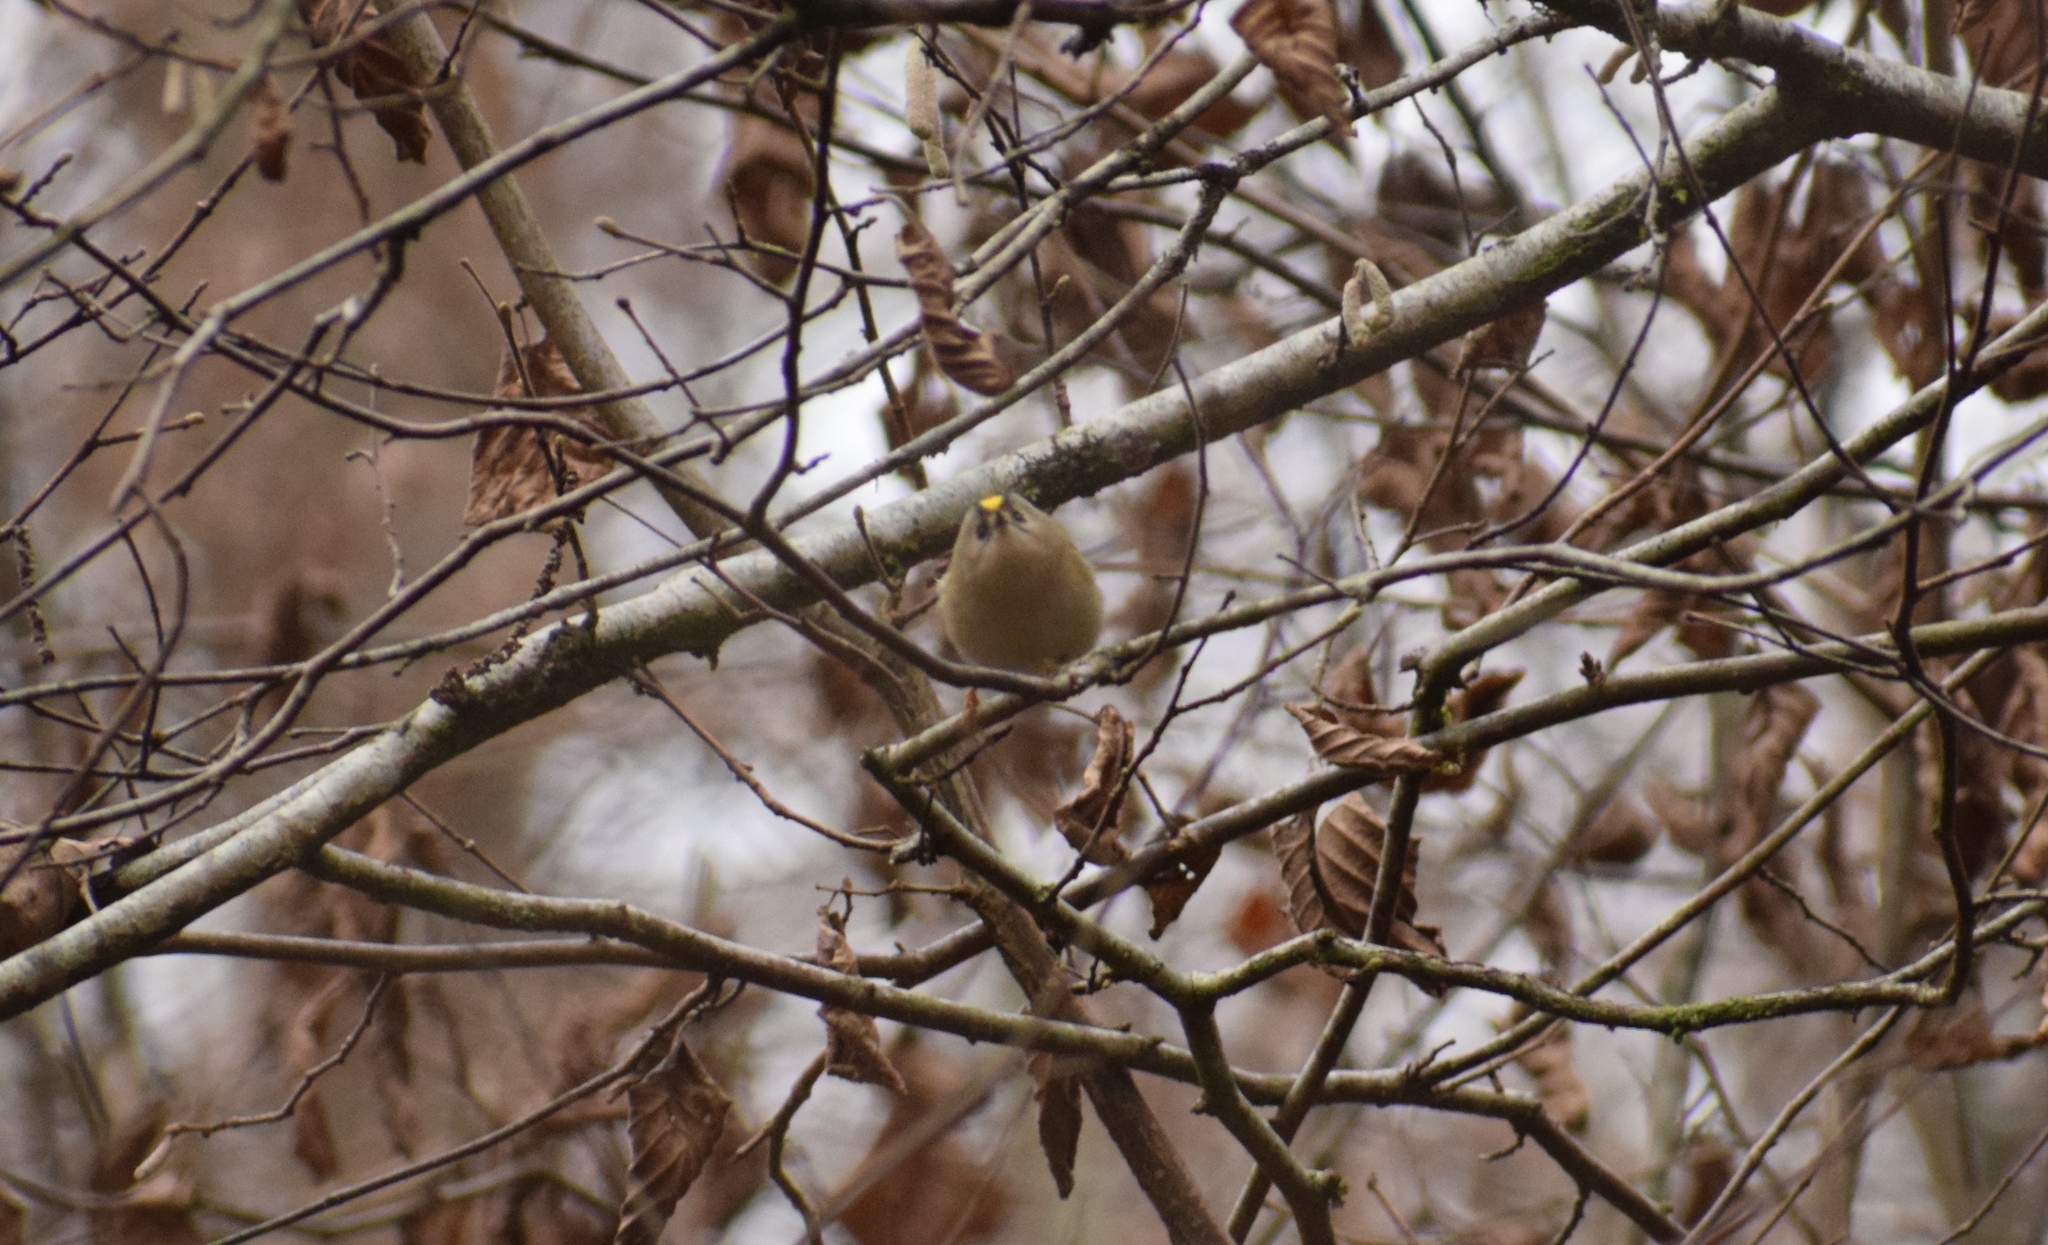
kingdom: Animalia
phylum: Chordata
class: Aves
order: Passeriformes
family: Regulidae
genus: Regulus
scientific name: Regulus regulus
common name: Goldcrest
